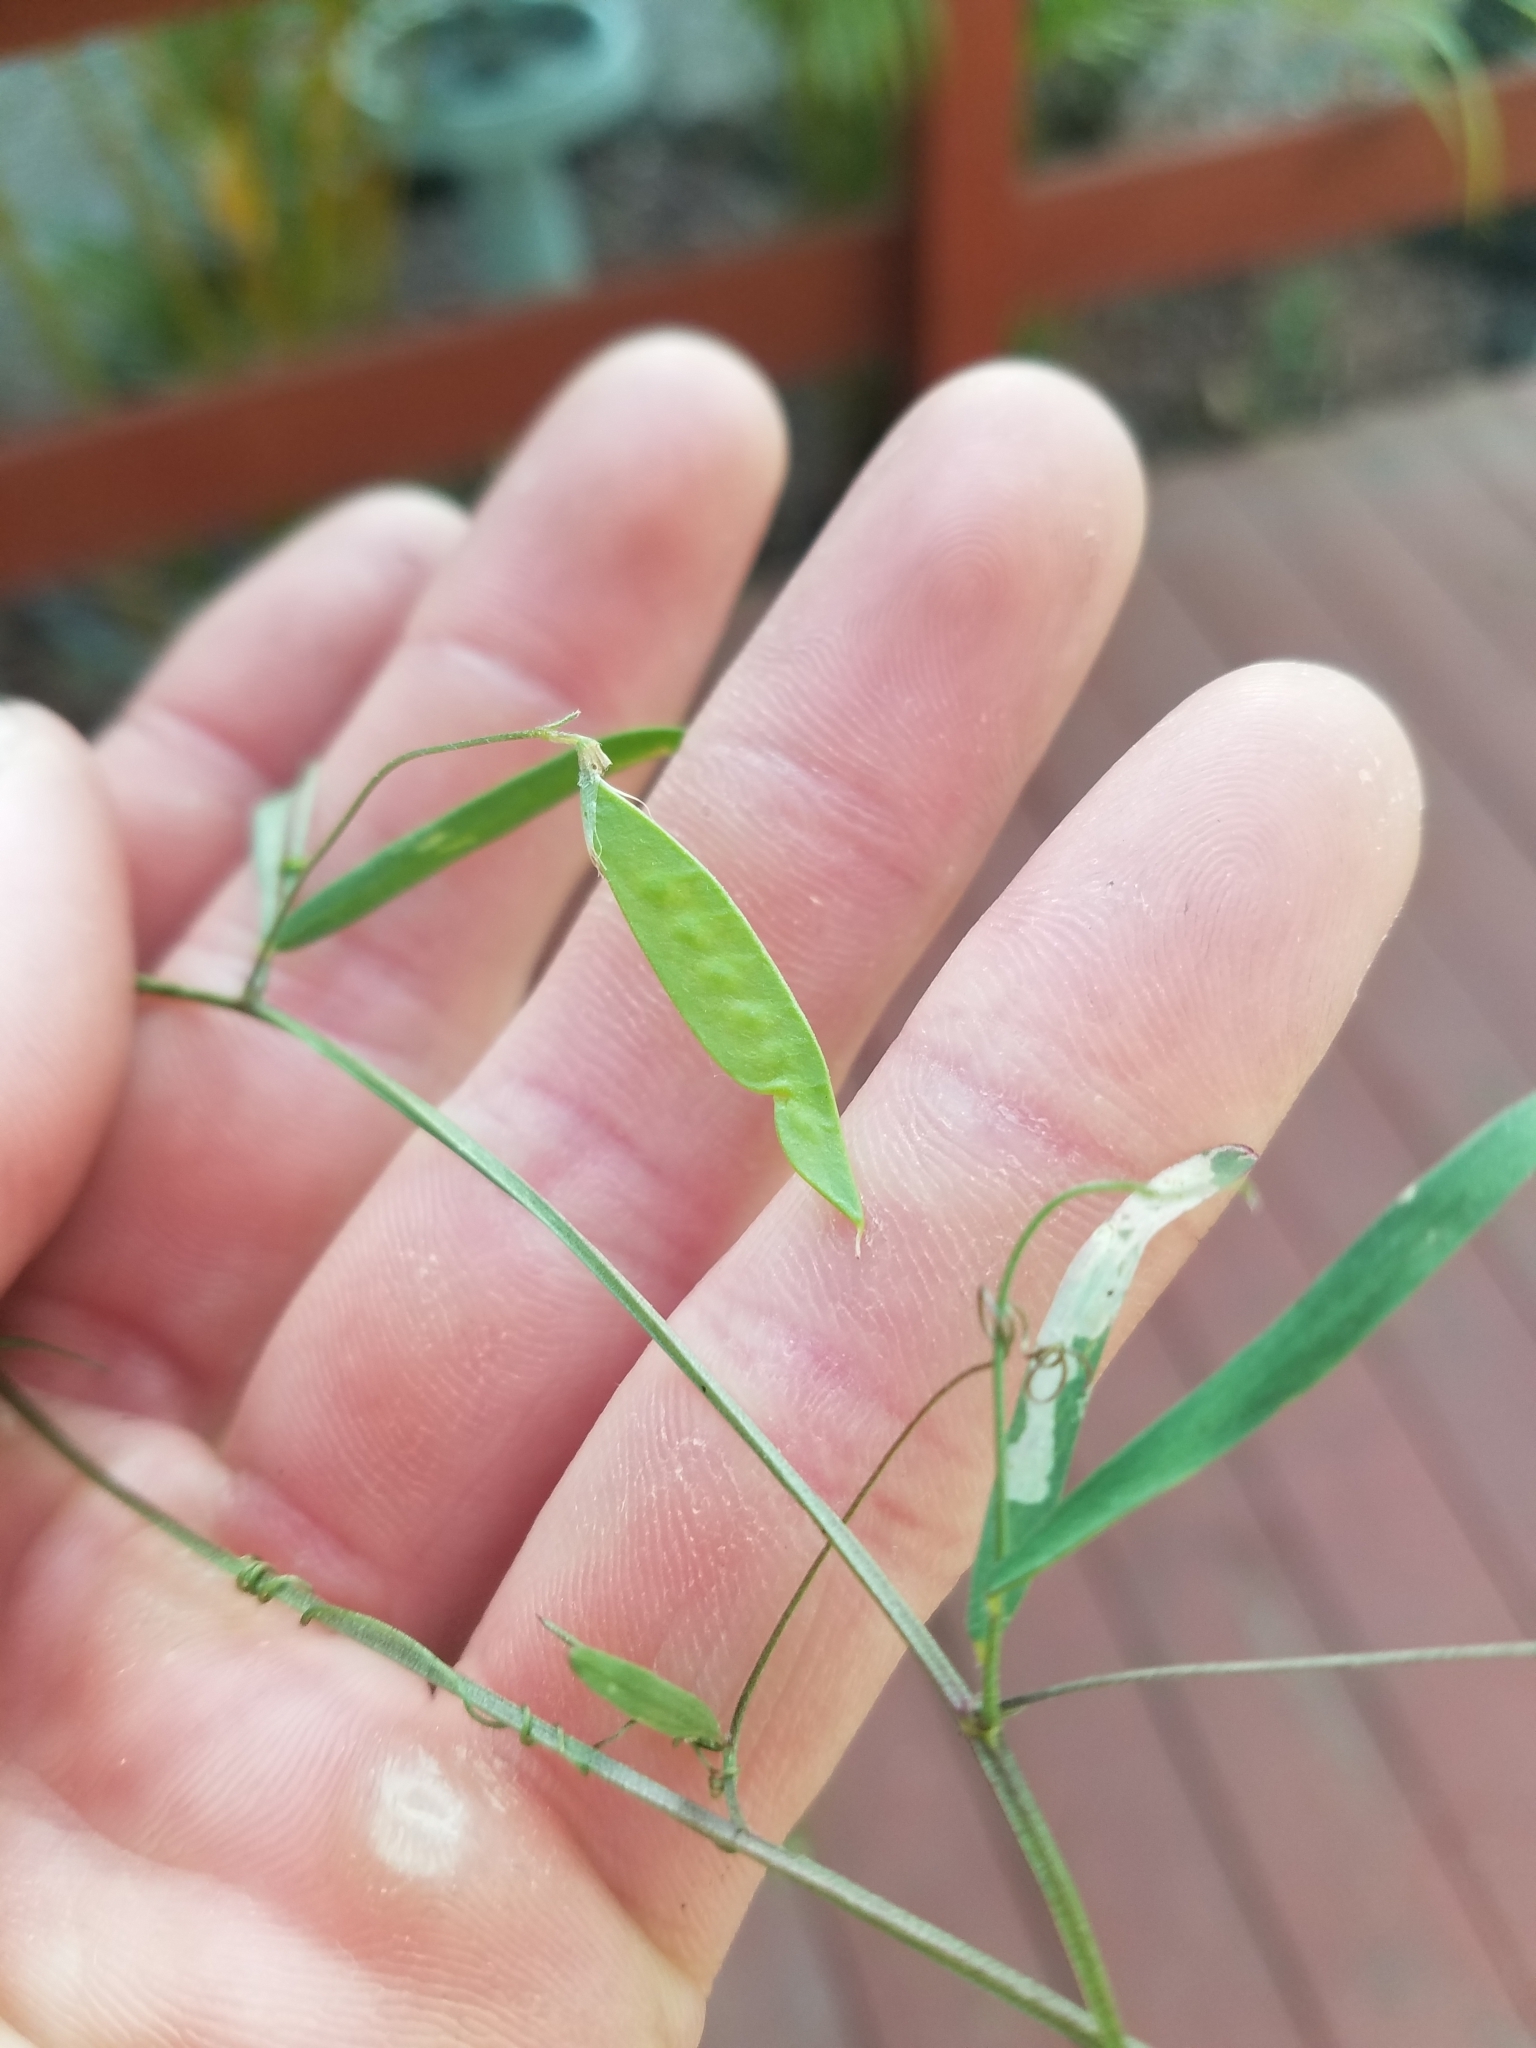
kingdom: Plantae
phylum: Tracheophyta
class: Magnoliopsida
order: Fabales
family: Fabaceae
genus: Vicia
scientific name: Vicia acutifolia
